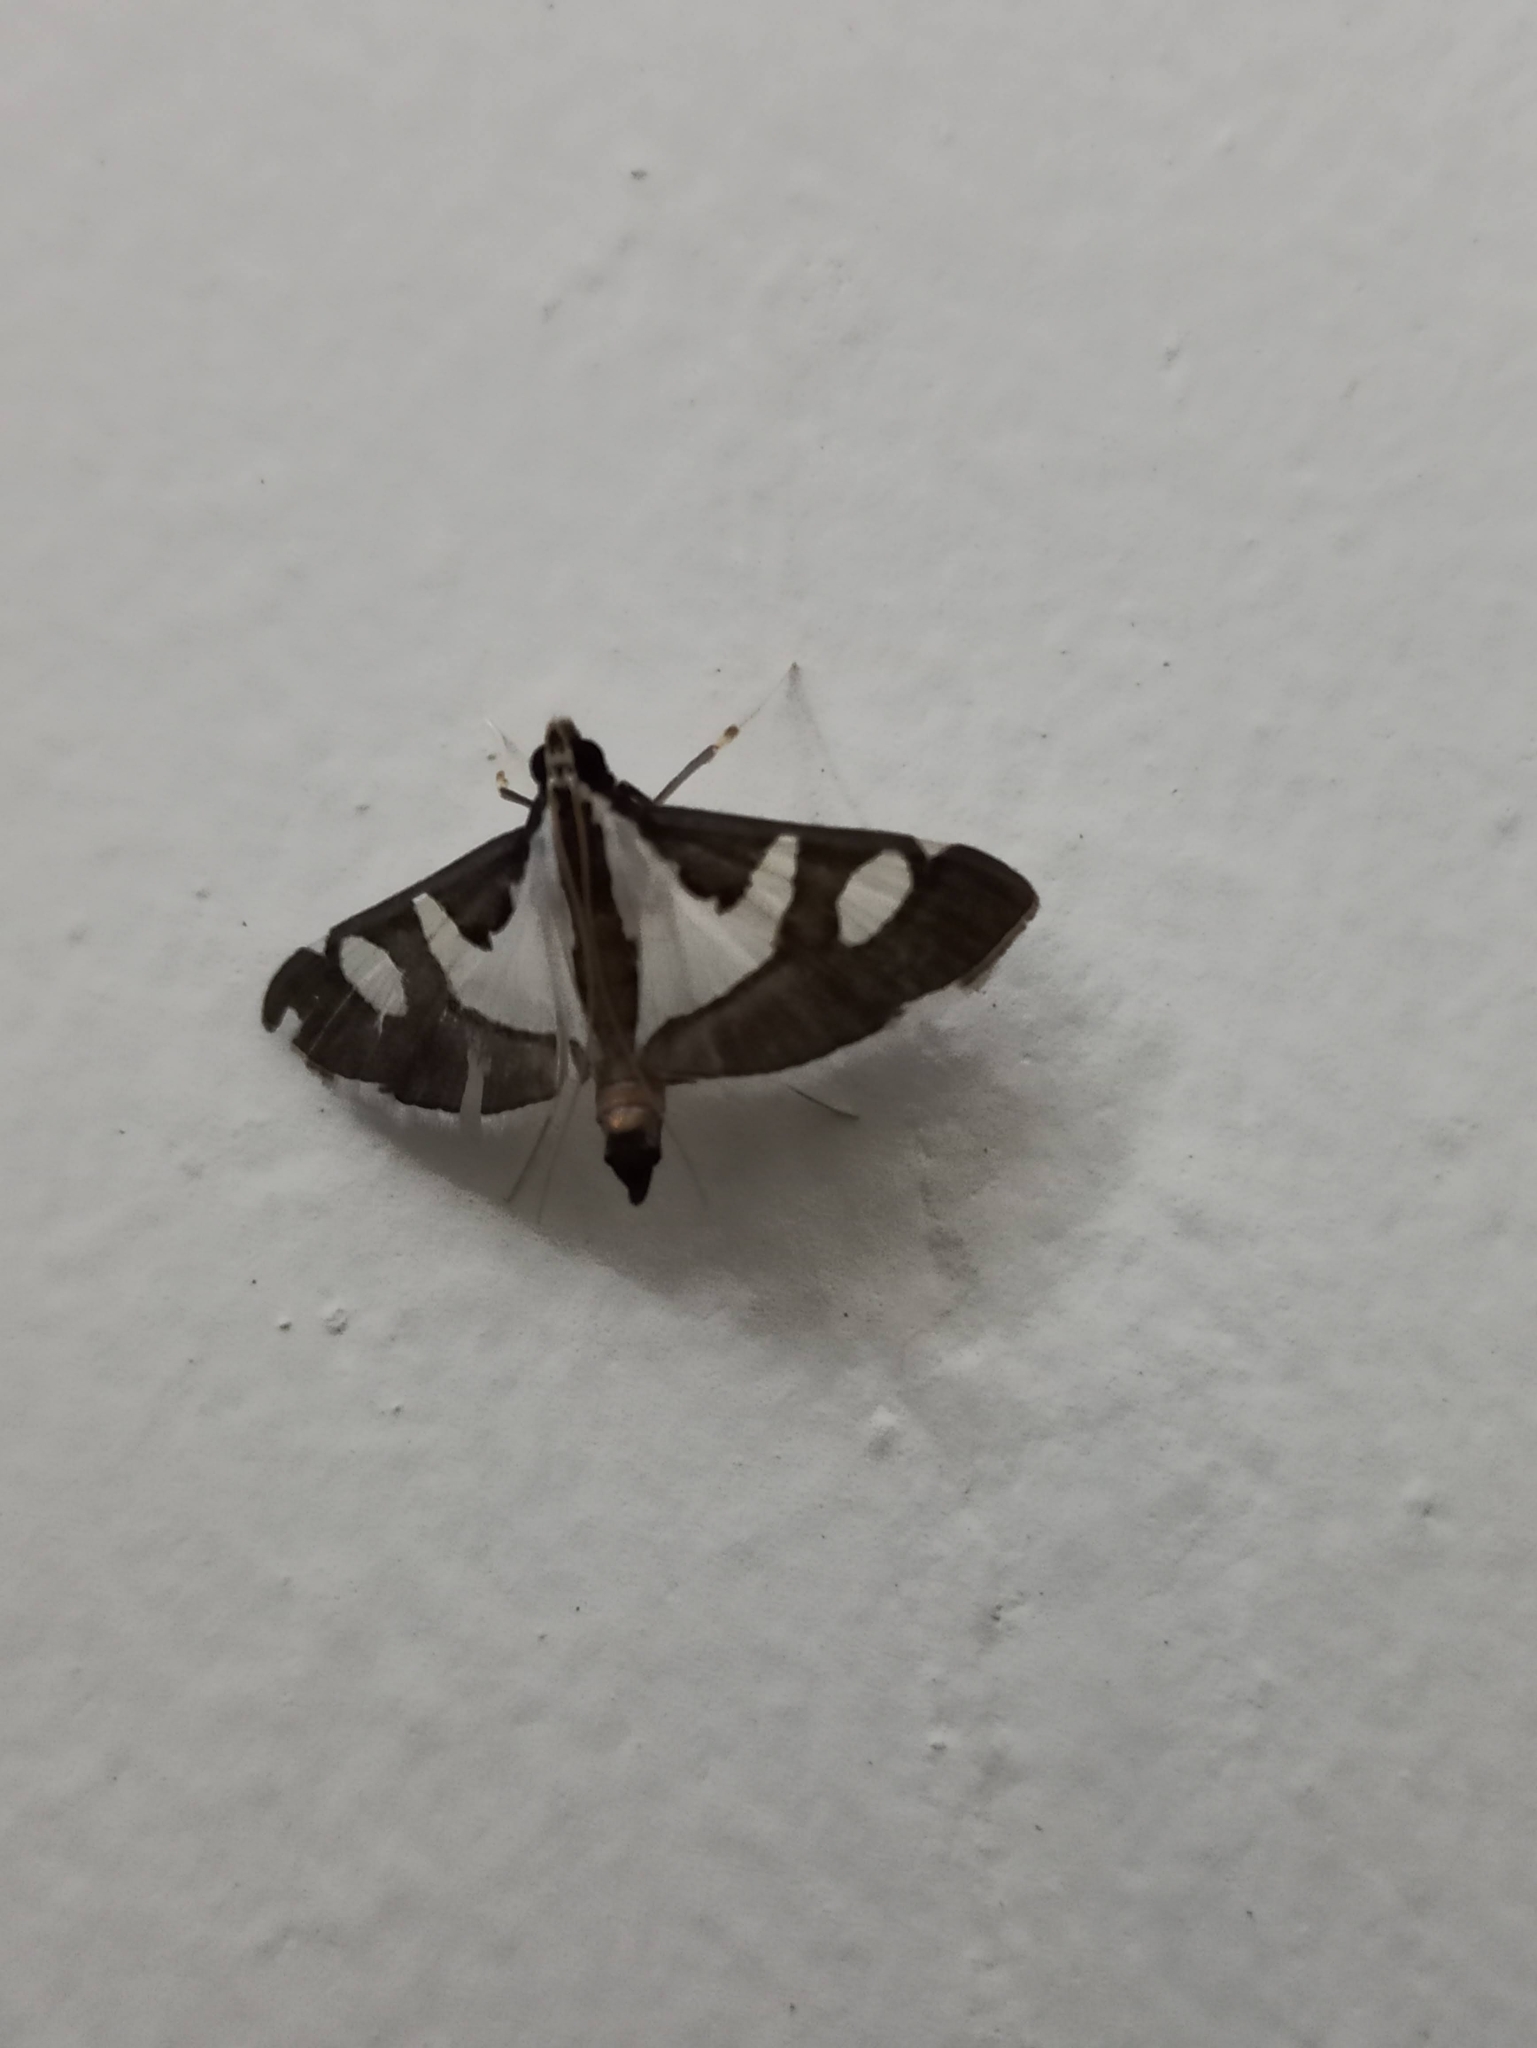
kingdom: Animalia
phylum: Arthropoda
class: Insecta
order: Lepidoptera
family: Crambidae
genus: Glyphodes
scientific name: Glyphodes bicolor
